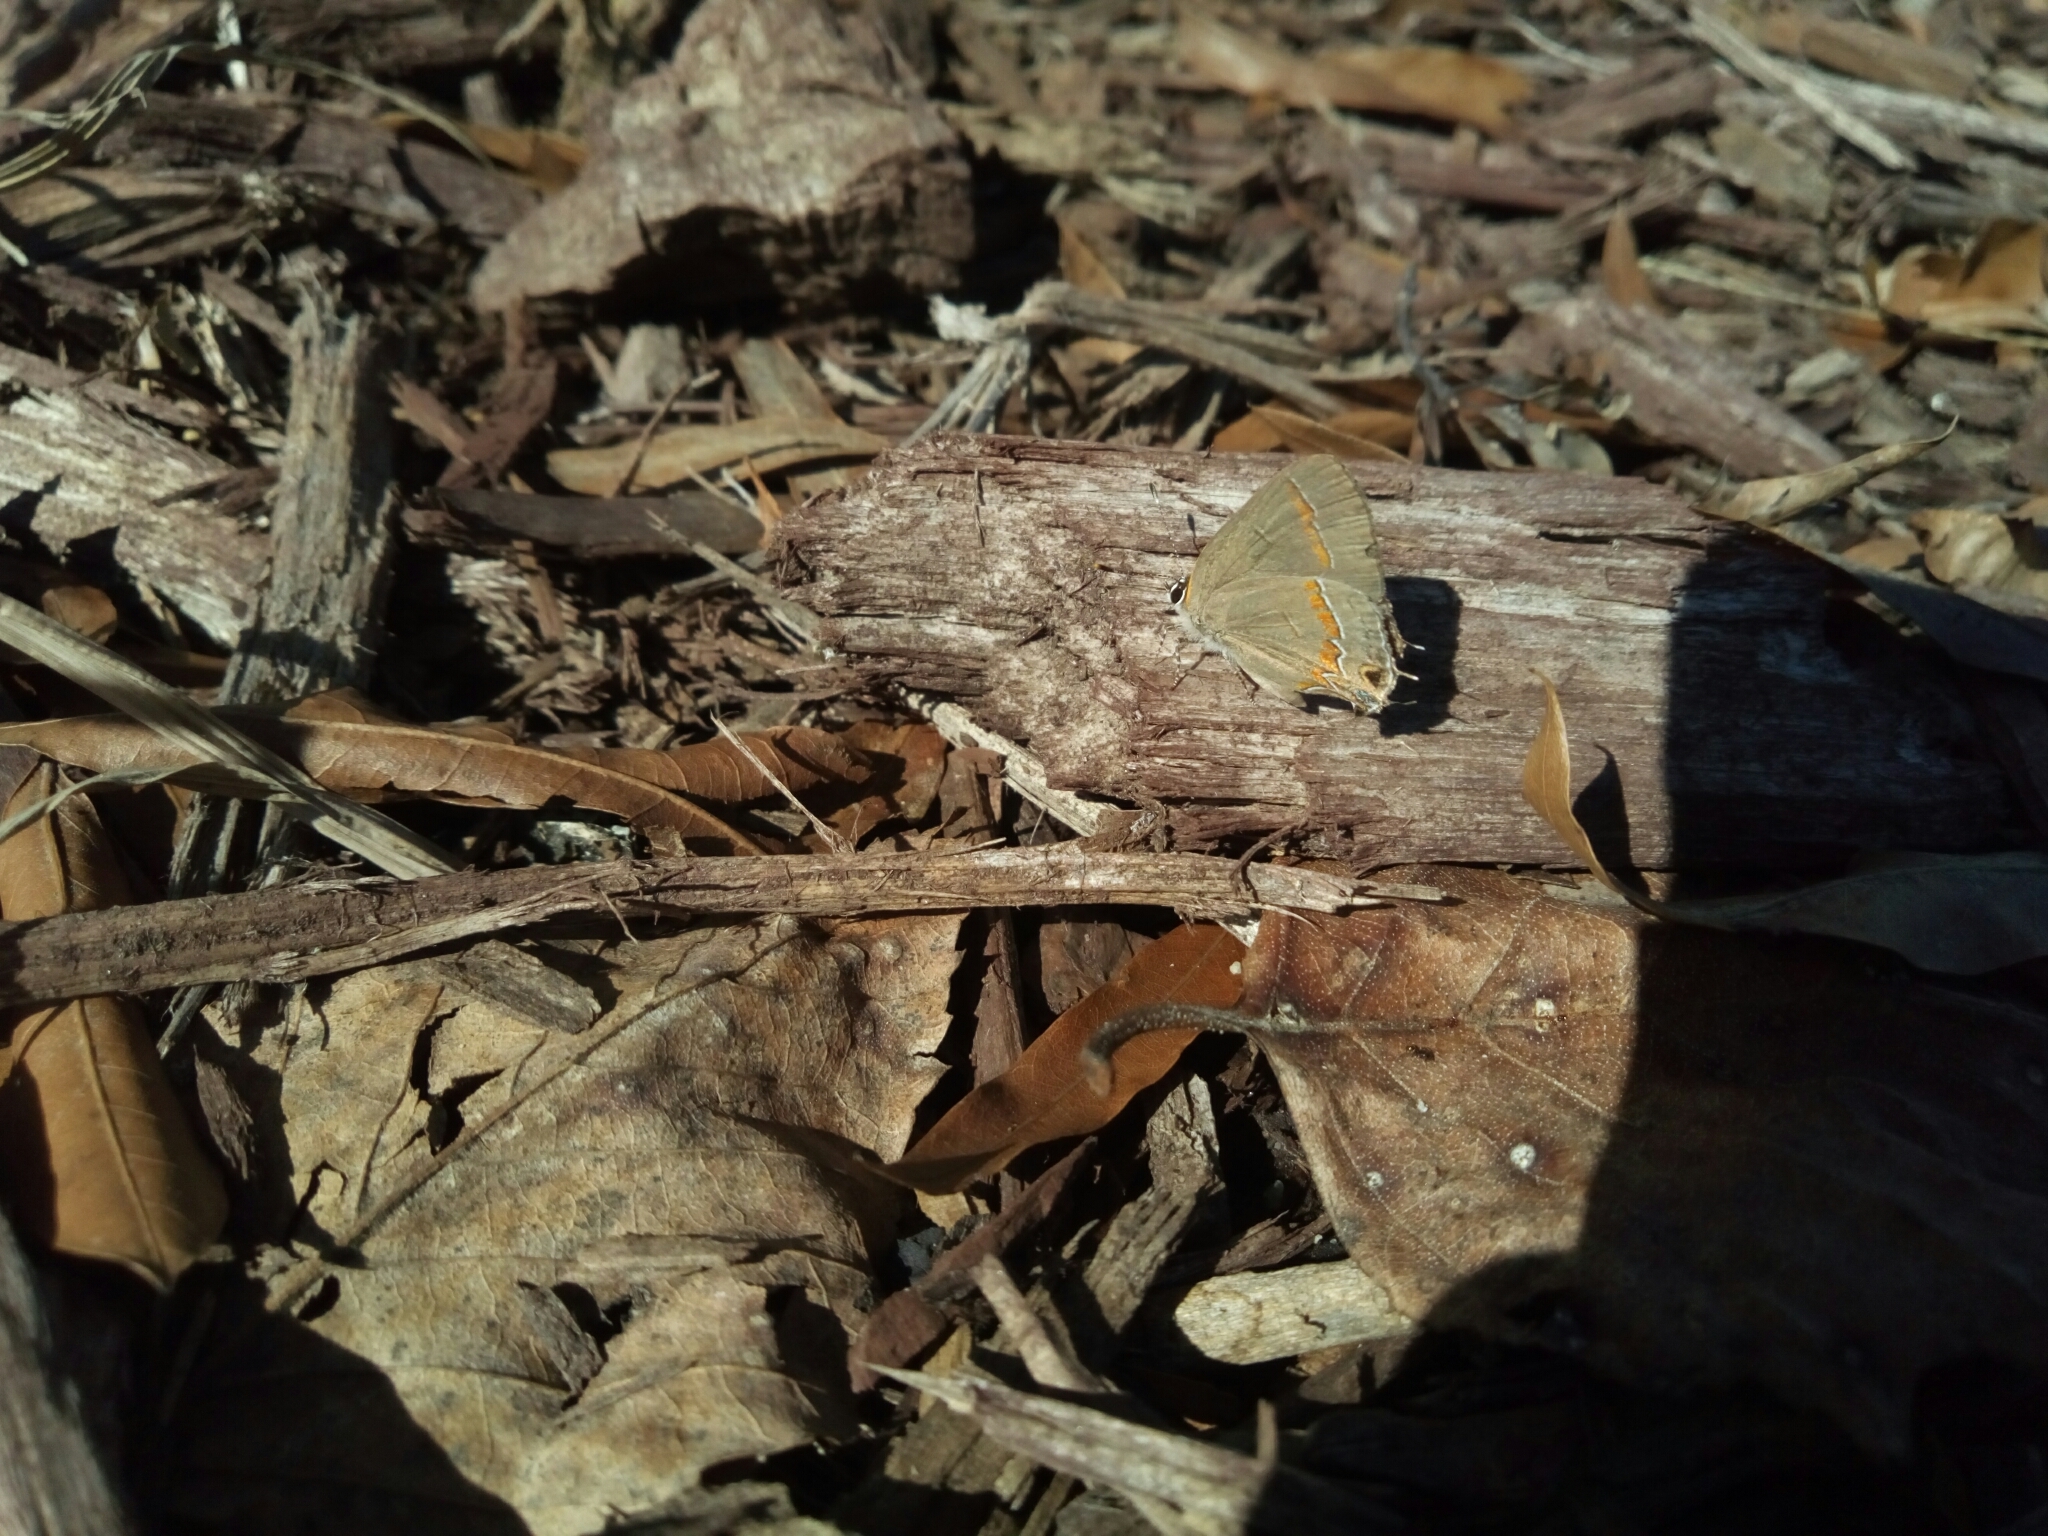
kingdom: Animalia
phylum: Arthropoda
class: Insecta
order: Lepidoptera
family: Lycaenidae
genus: Calycopis
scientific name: Calycopis cecrops
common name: Red-banded hairstreak
